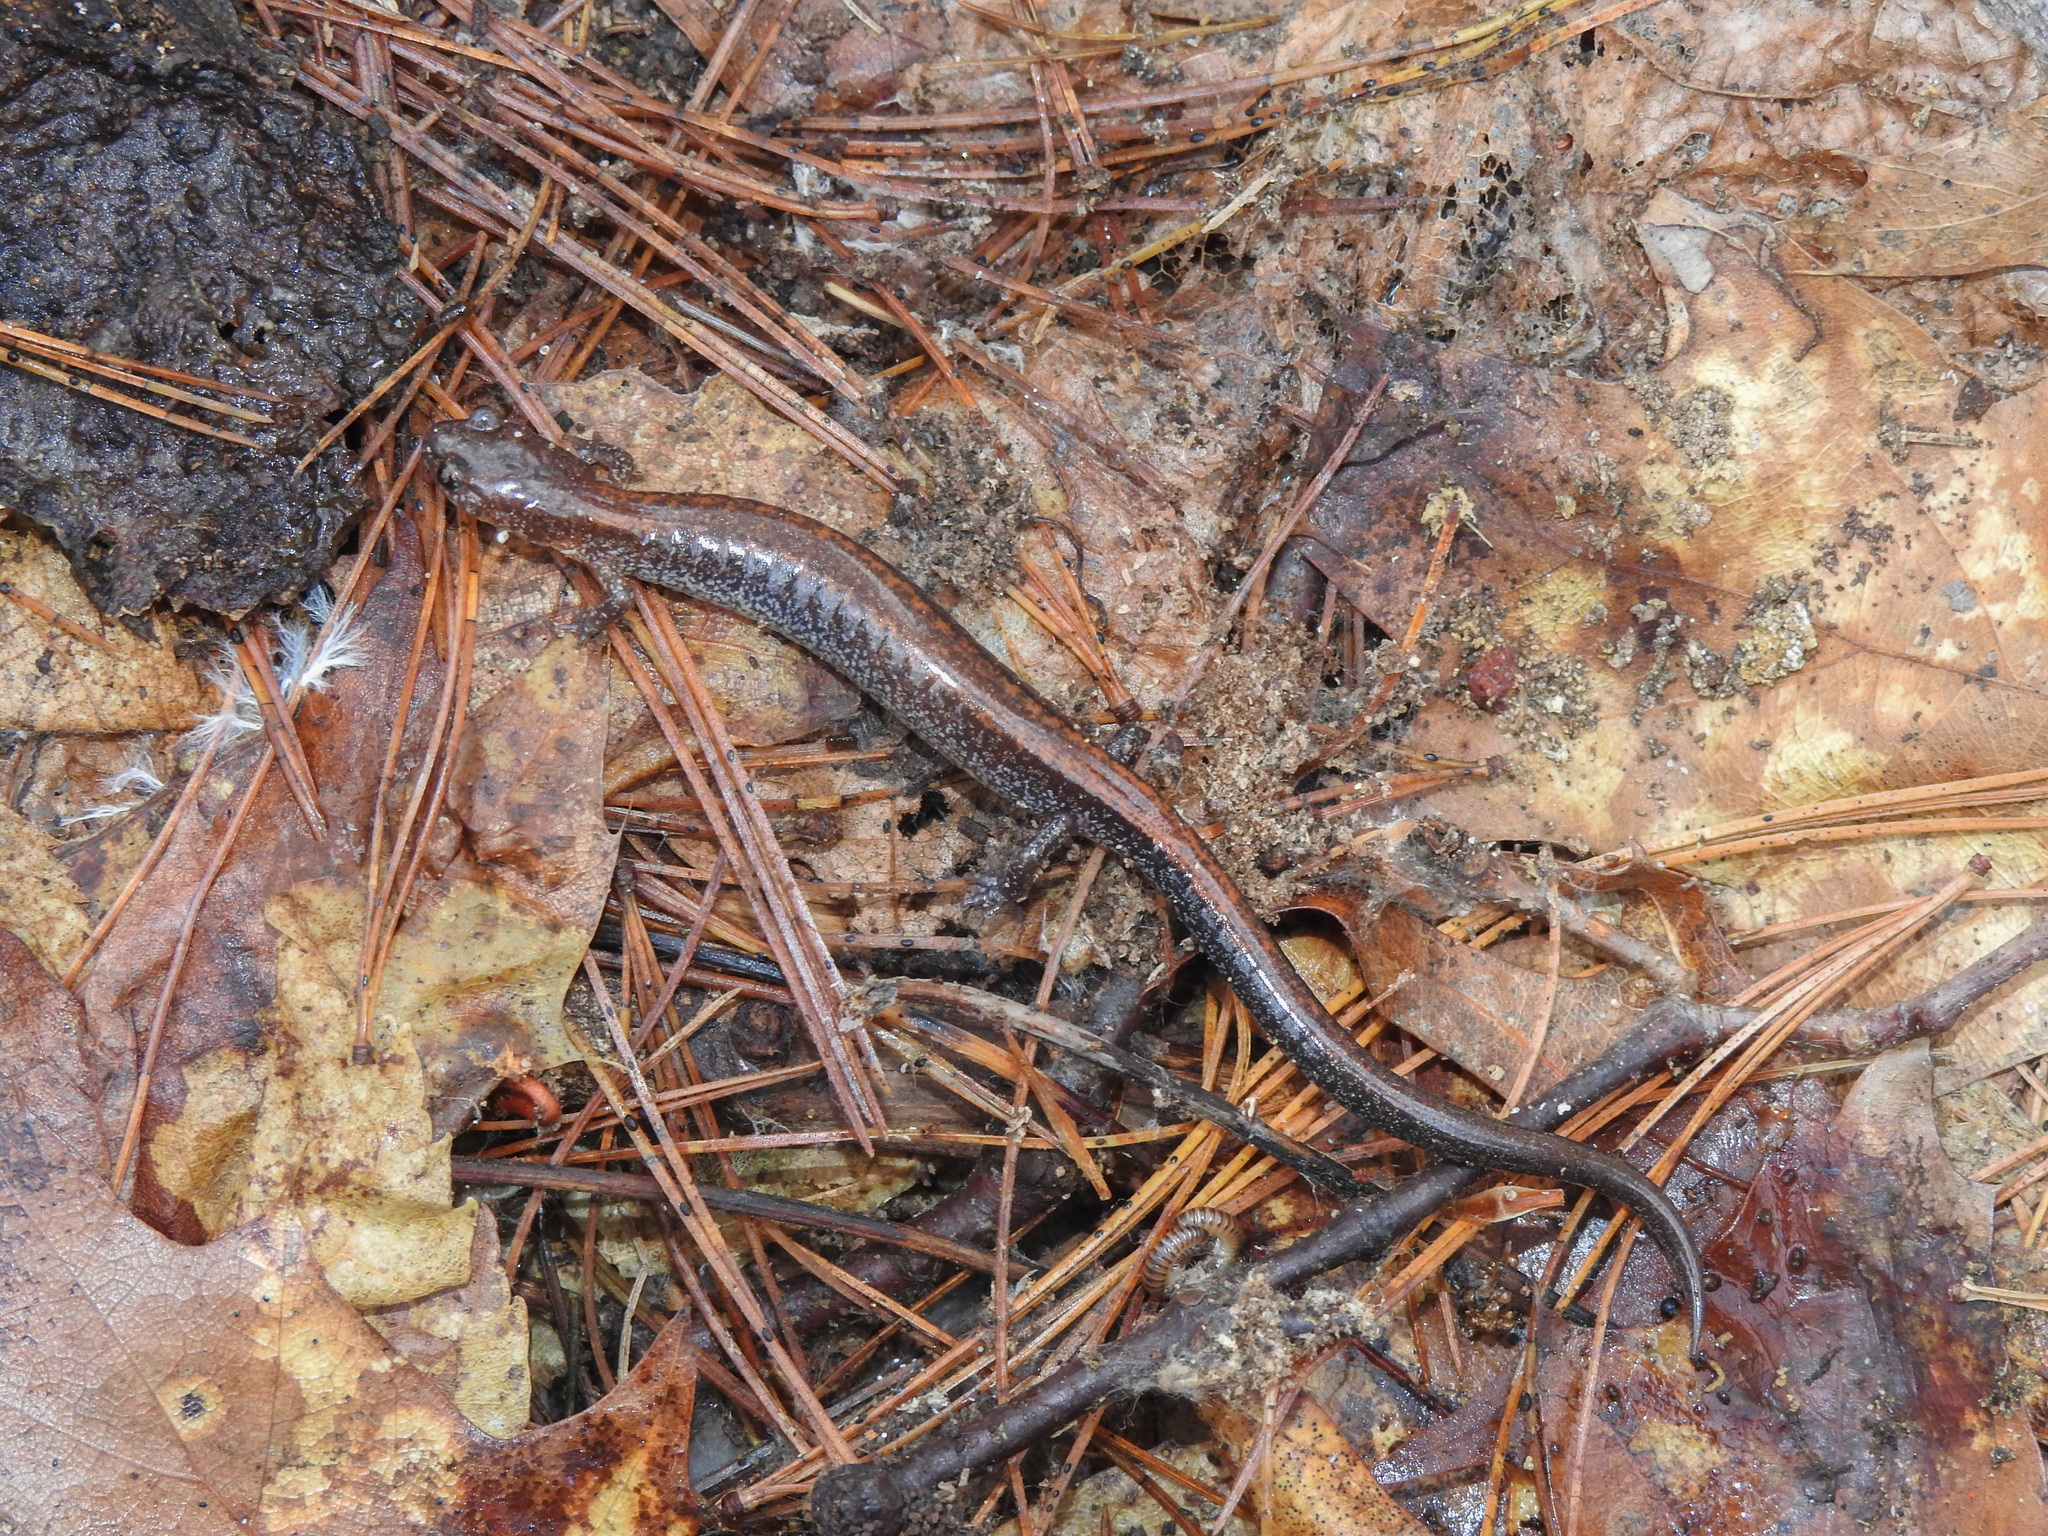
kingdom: Animalia
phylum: Chordata
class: Amphibia
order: Caudata
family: Plethodontidae
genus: Plethodon
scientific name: Plethodon cinereus
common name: Redback salamander
